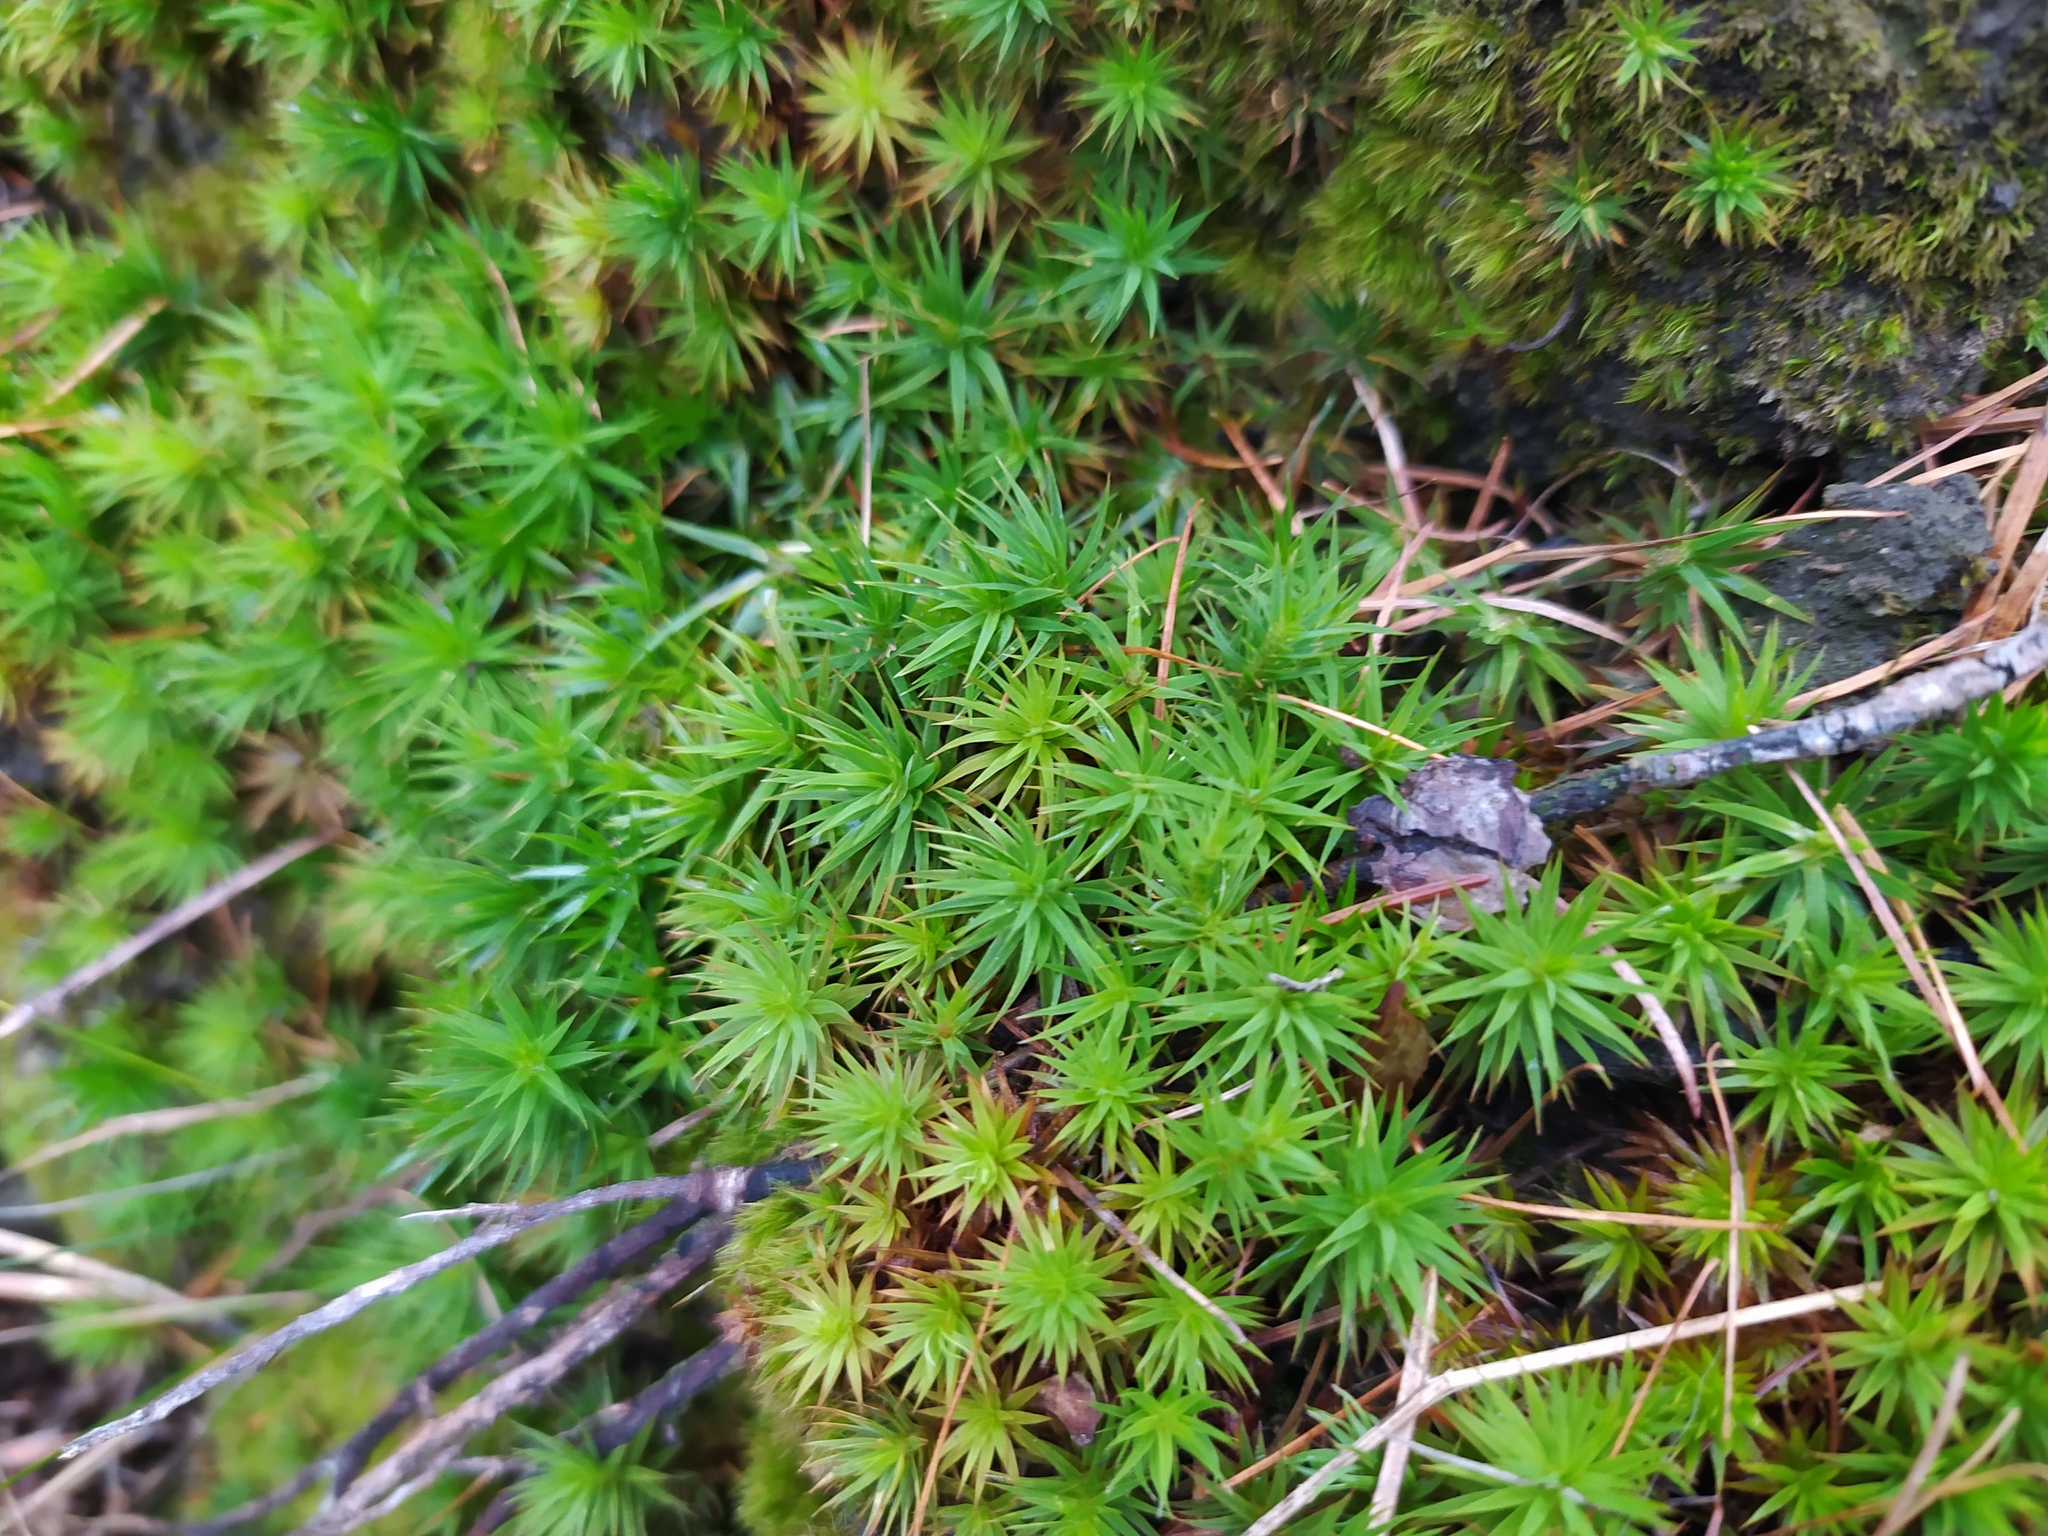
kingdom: Plantae
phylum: Bryophyta
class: Polytrichopsida
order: Polytrichales
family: Polytrichaceae
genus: Polytrichum
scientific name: Polytrichum juniperinum
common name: Juniper haircap moss
